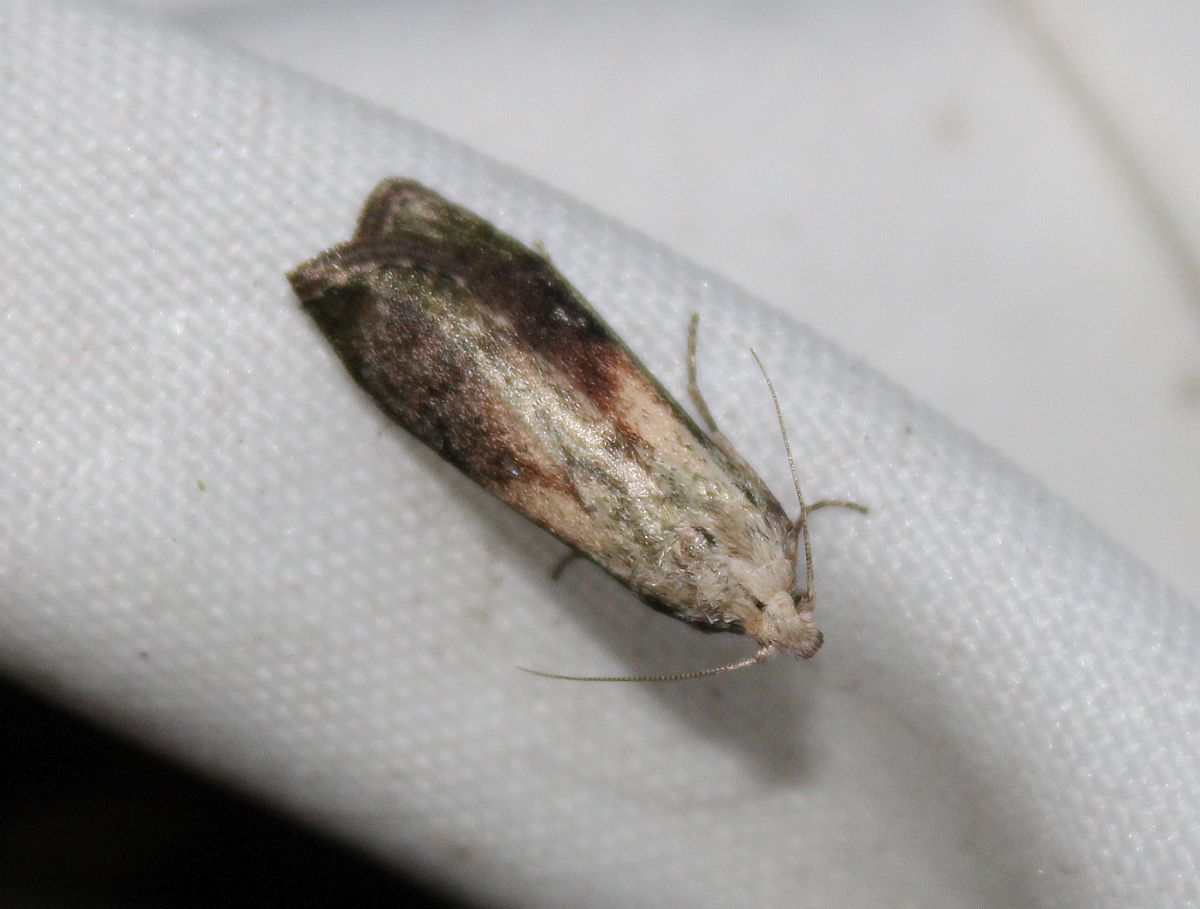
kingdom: Animalia
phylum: Arthropoda
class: Insecta
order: Lepidoptera
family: Pyralidae
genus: Aphomia
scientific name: Aphomia sociella
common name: Bee moth
